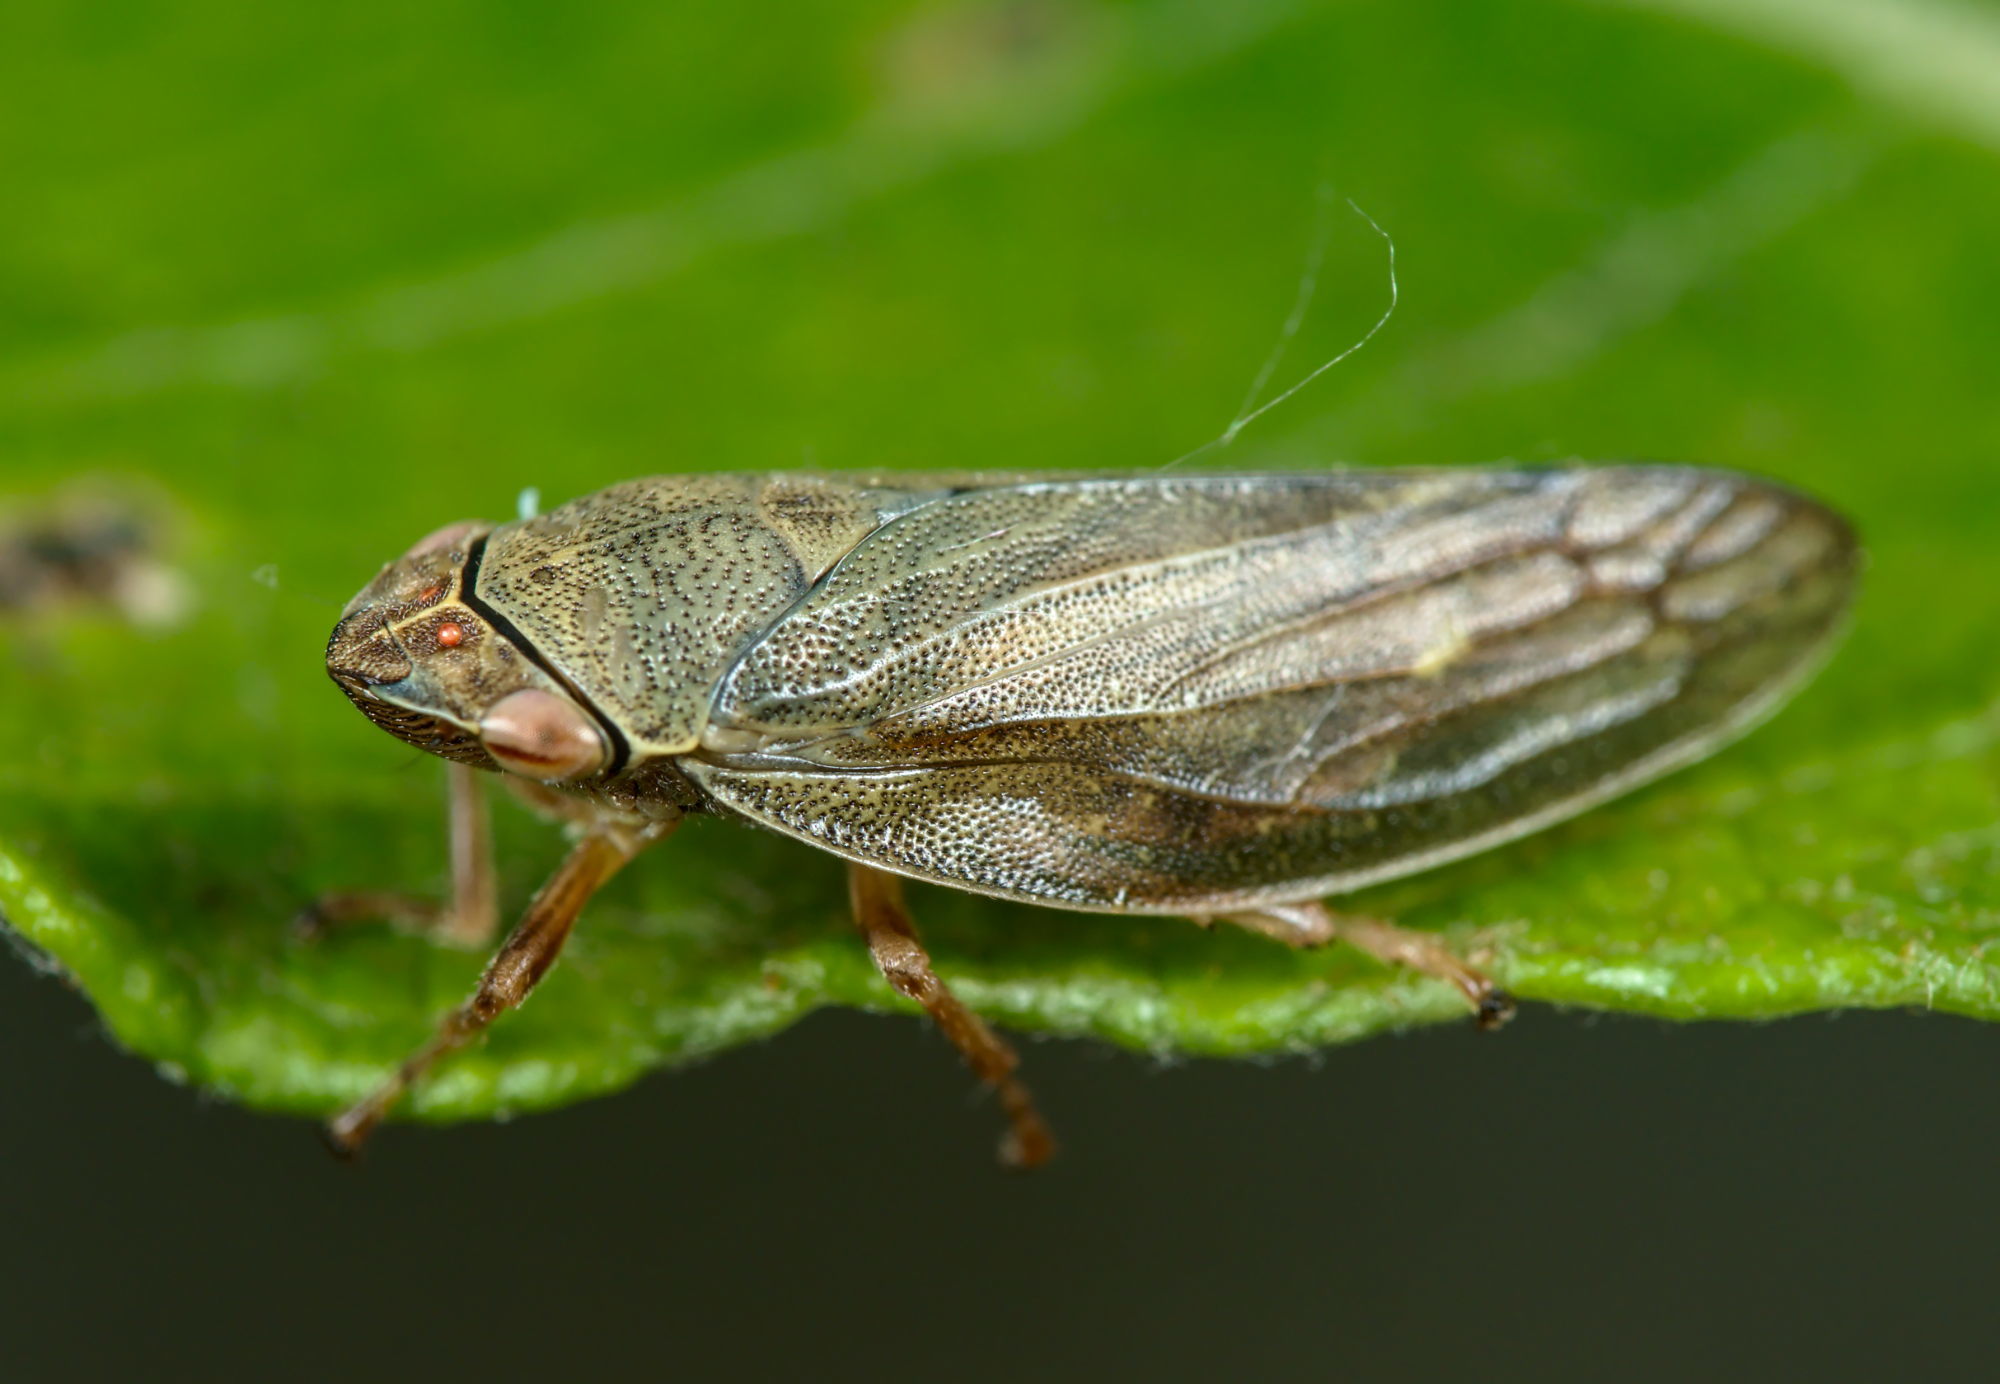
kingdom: Animalia
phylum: Arthropoda
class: Insecta
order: Hemiptera
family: Aphrophoridae
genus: Aphrophora
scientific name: Aphrophora salicina
